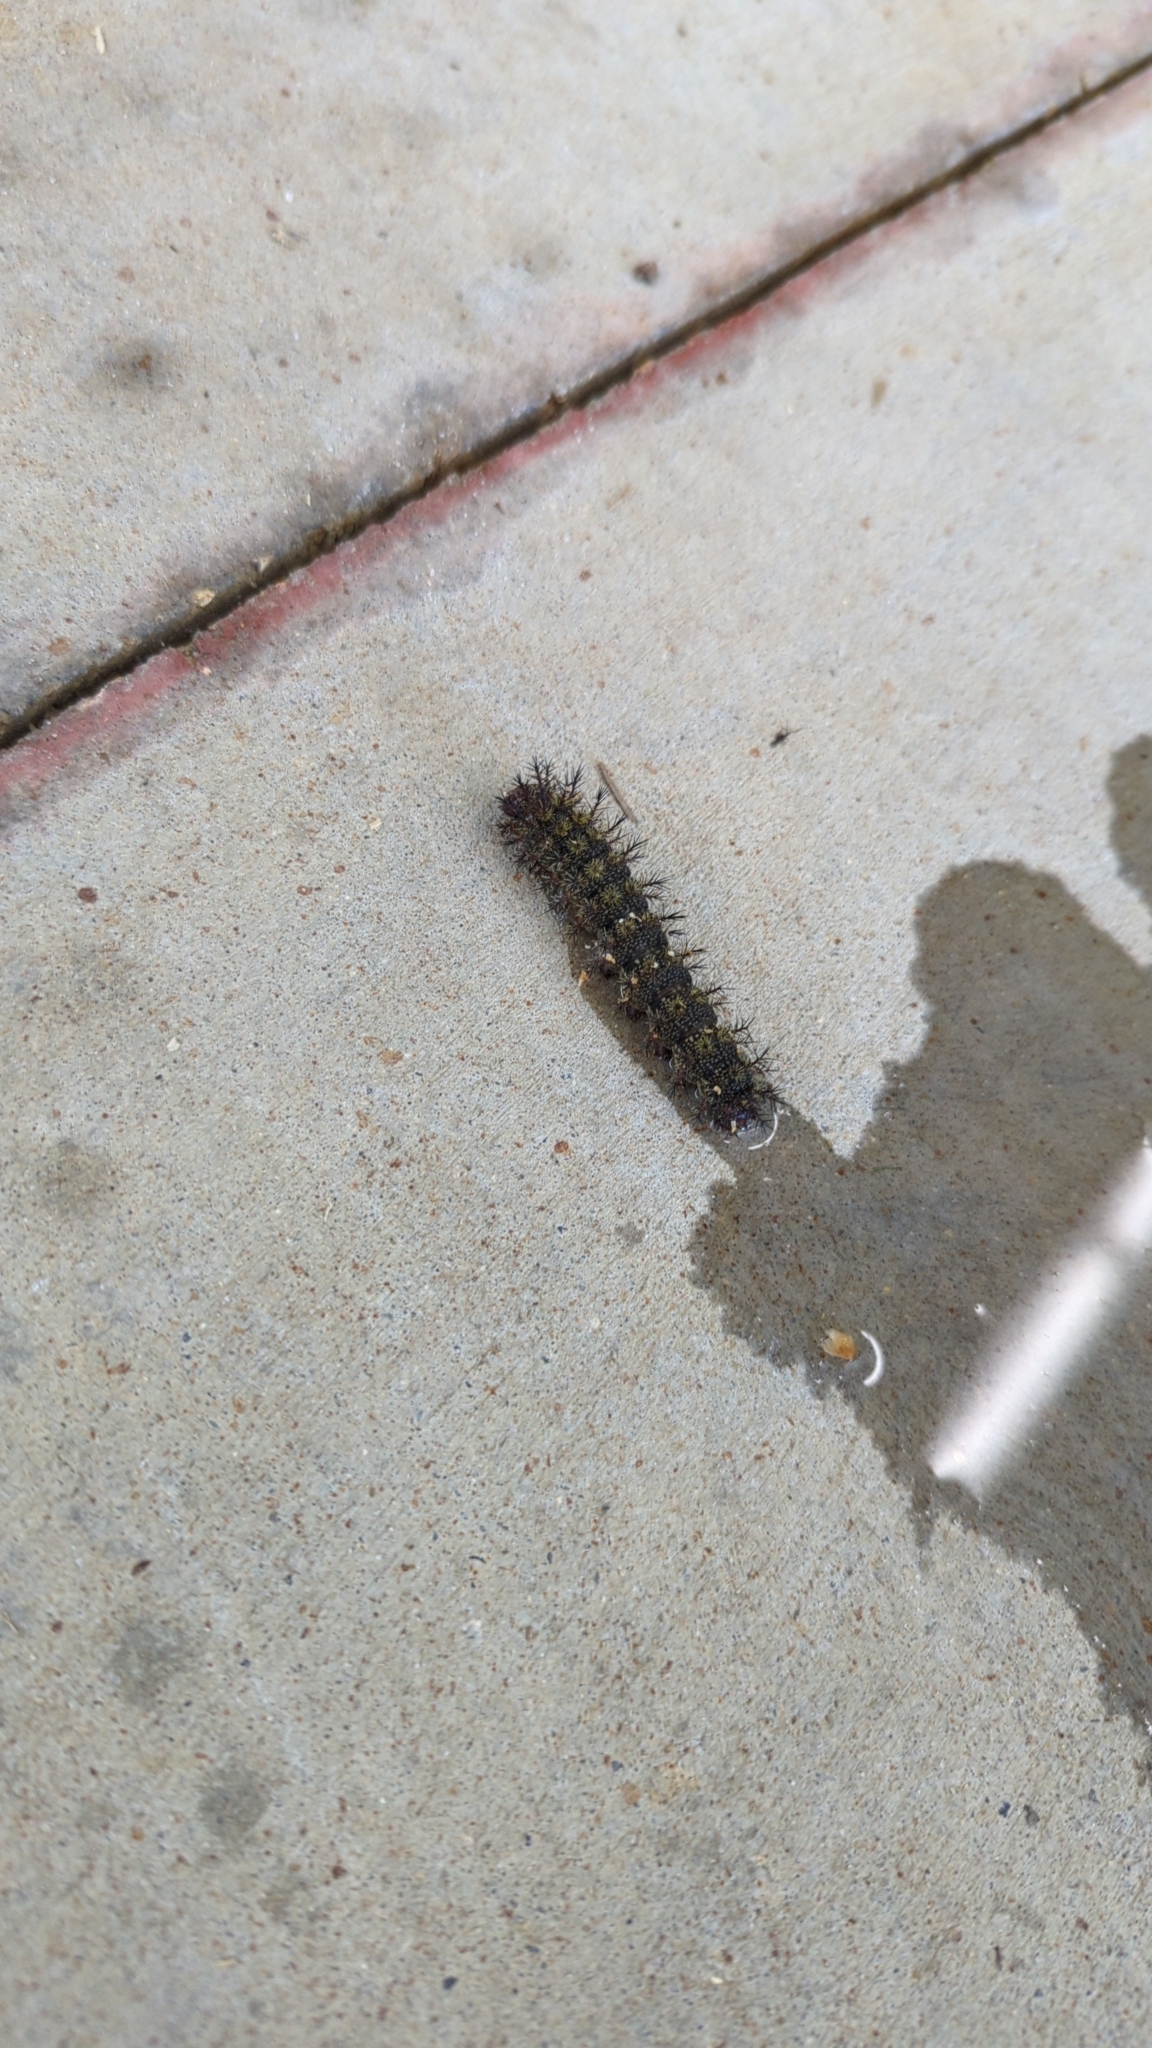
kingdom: Animalia
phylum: Arthropoda
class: Insecta
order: Lepidoptera
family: Saturniidae
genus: Hemileuca
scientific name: Hemileuca maia
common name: Eastern buckmoth
